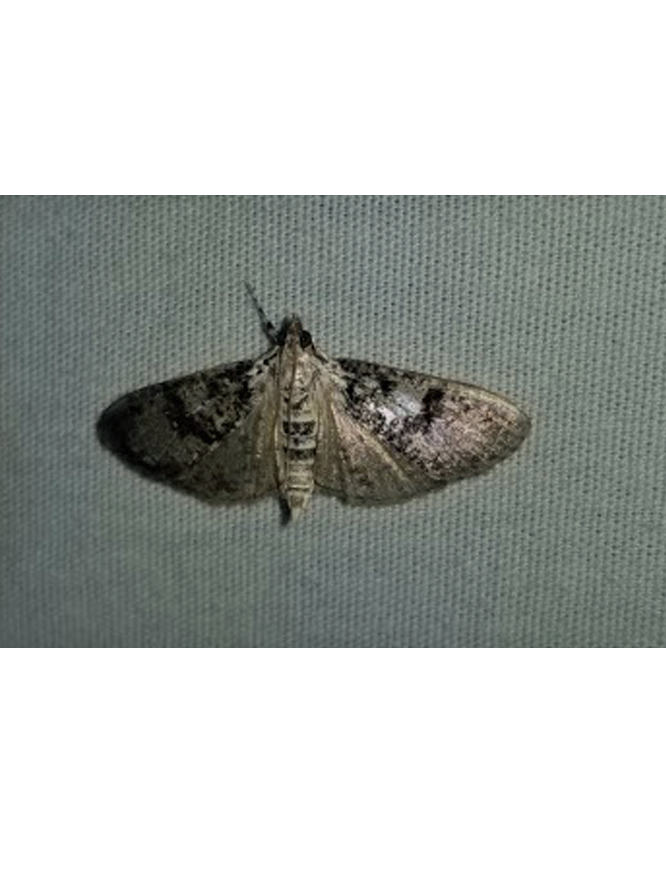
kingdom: Animalia
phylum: Arthropoda
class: Insecta
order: Lepidoptera
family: Crambidae
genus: Palpita
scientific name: Palpita magniferalis
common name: Splendid palpita moth
